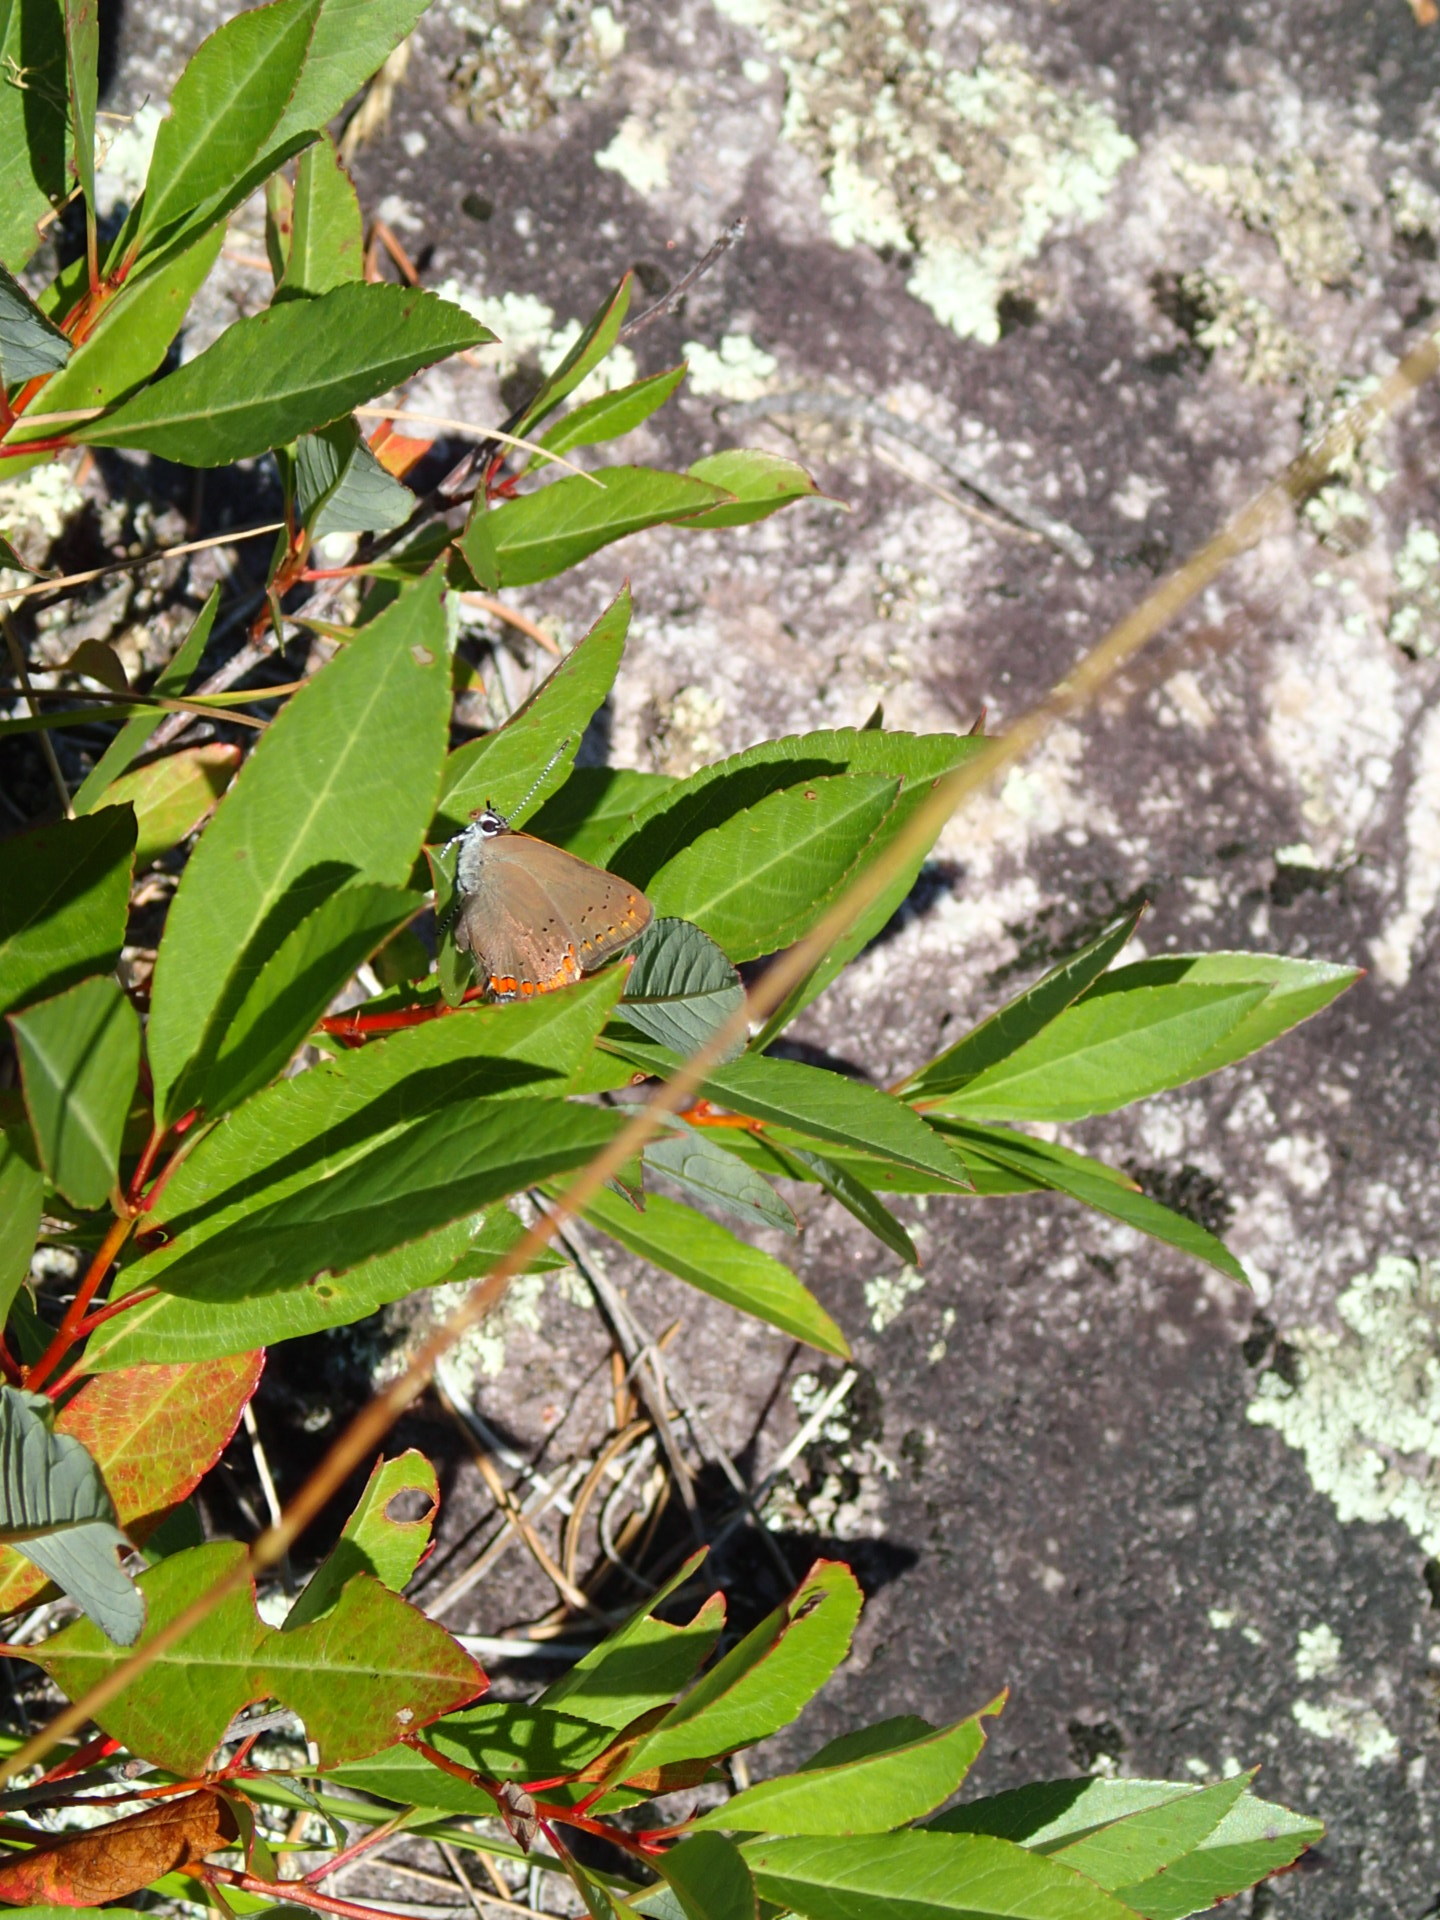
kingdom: Animalia
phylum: Arthropoda
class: Insecta
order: Lepidoptera
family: Lycaenidae
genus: Harkenclenus
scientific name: Harkenclenus titus
